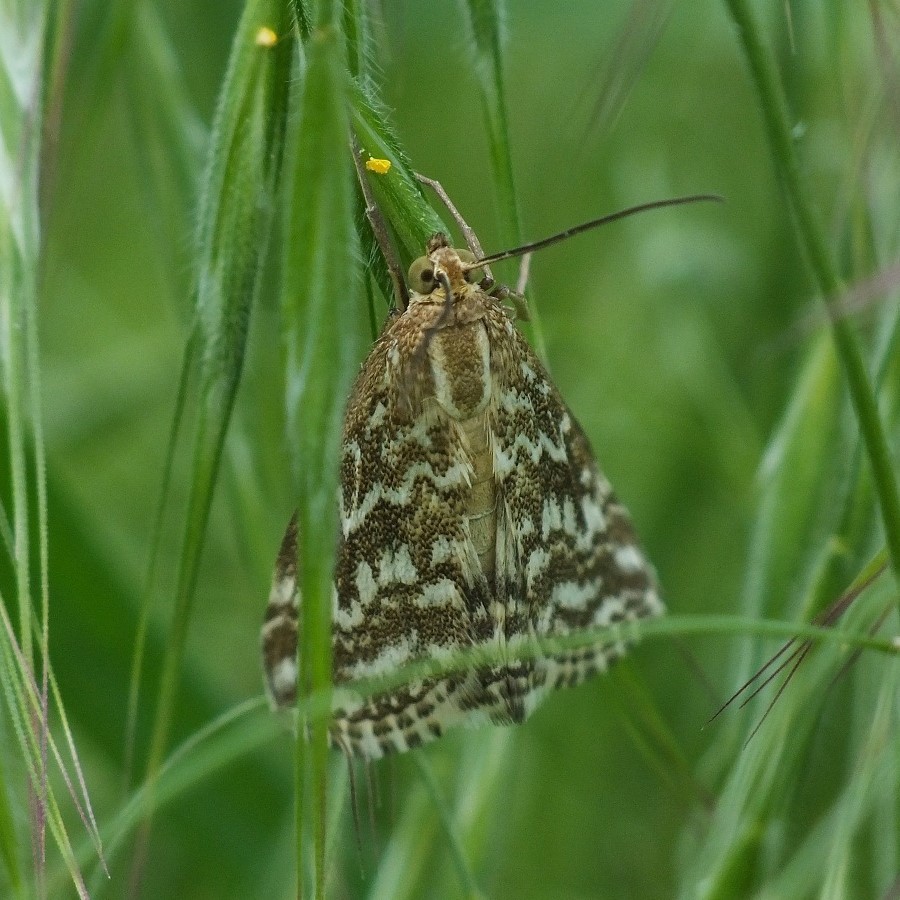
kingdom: Animalia
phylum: Arthropoda
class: Insecta
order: Lepidoptera
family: Crambidae
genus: Evergestis
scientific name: Evergestis frumentalis
